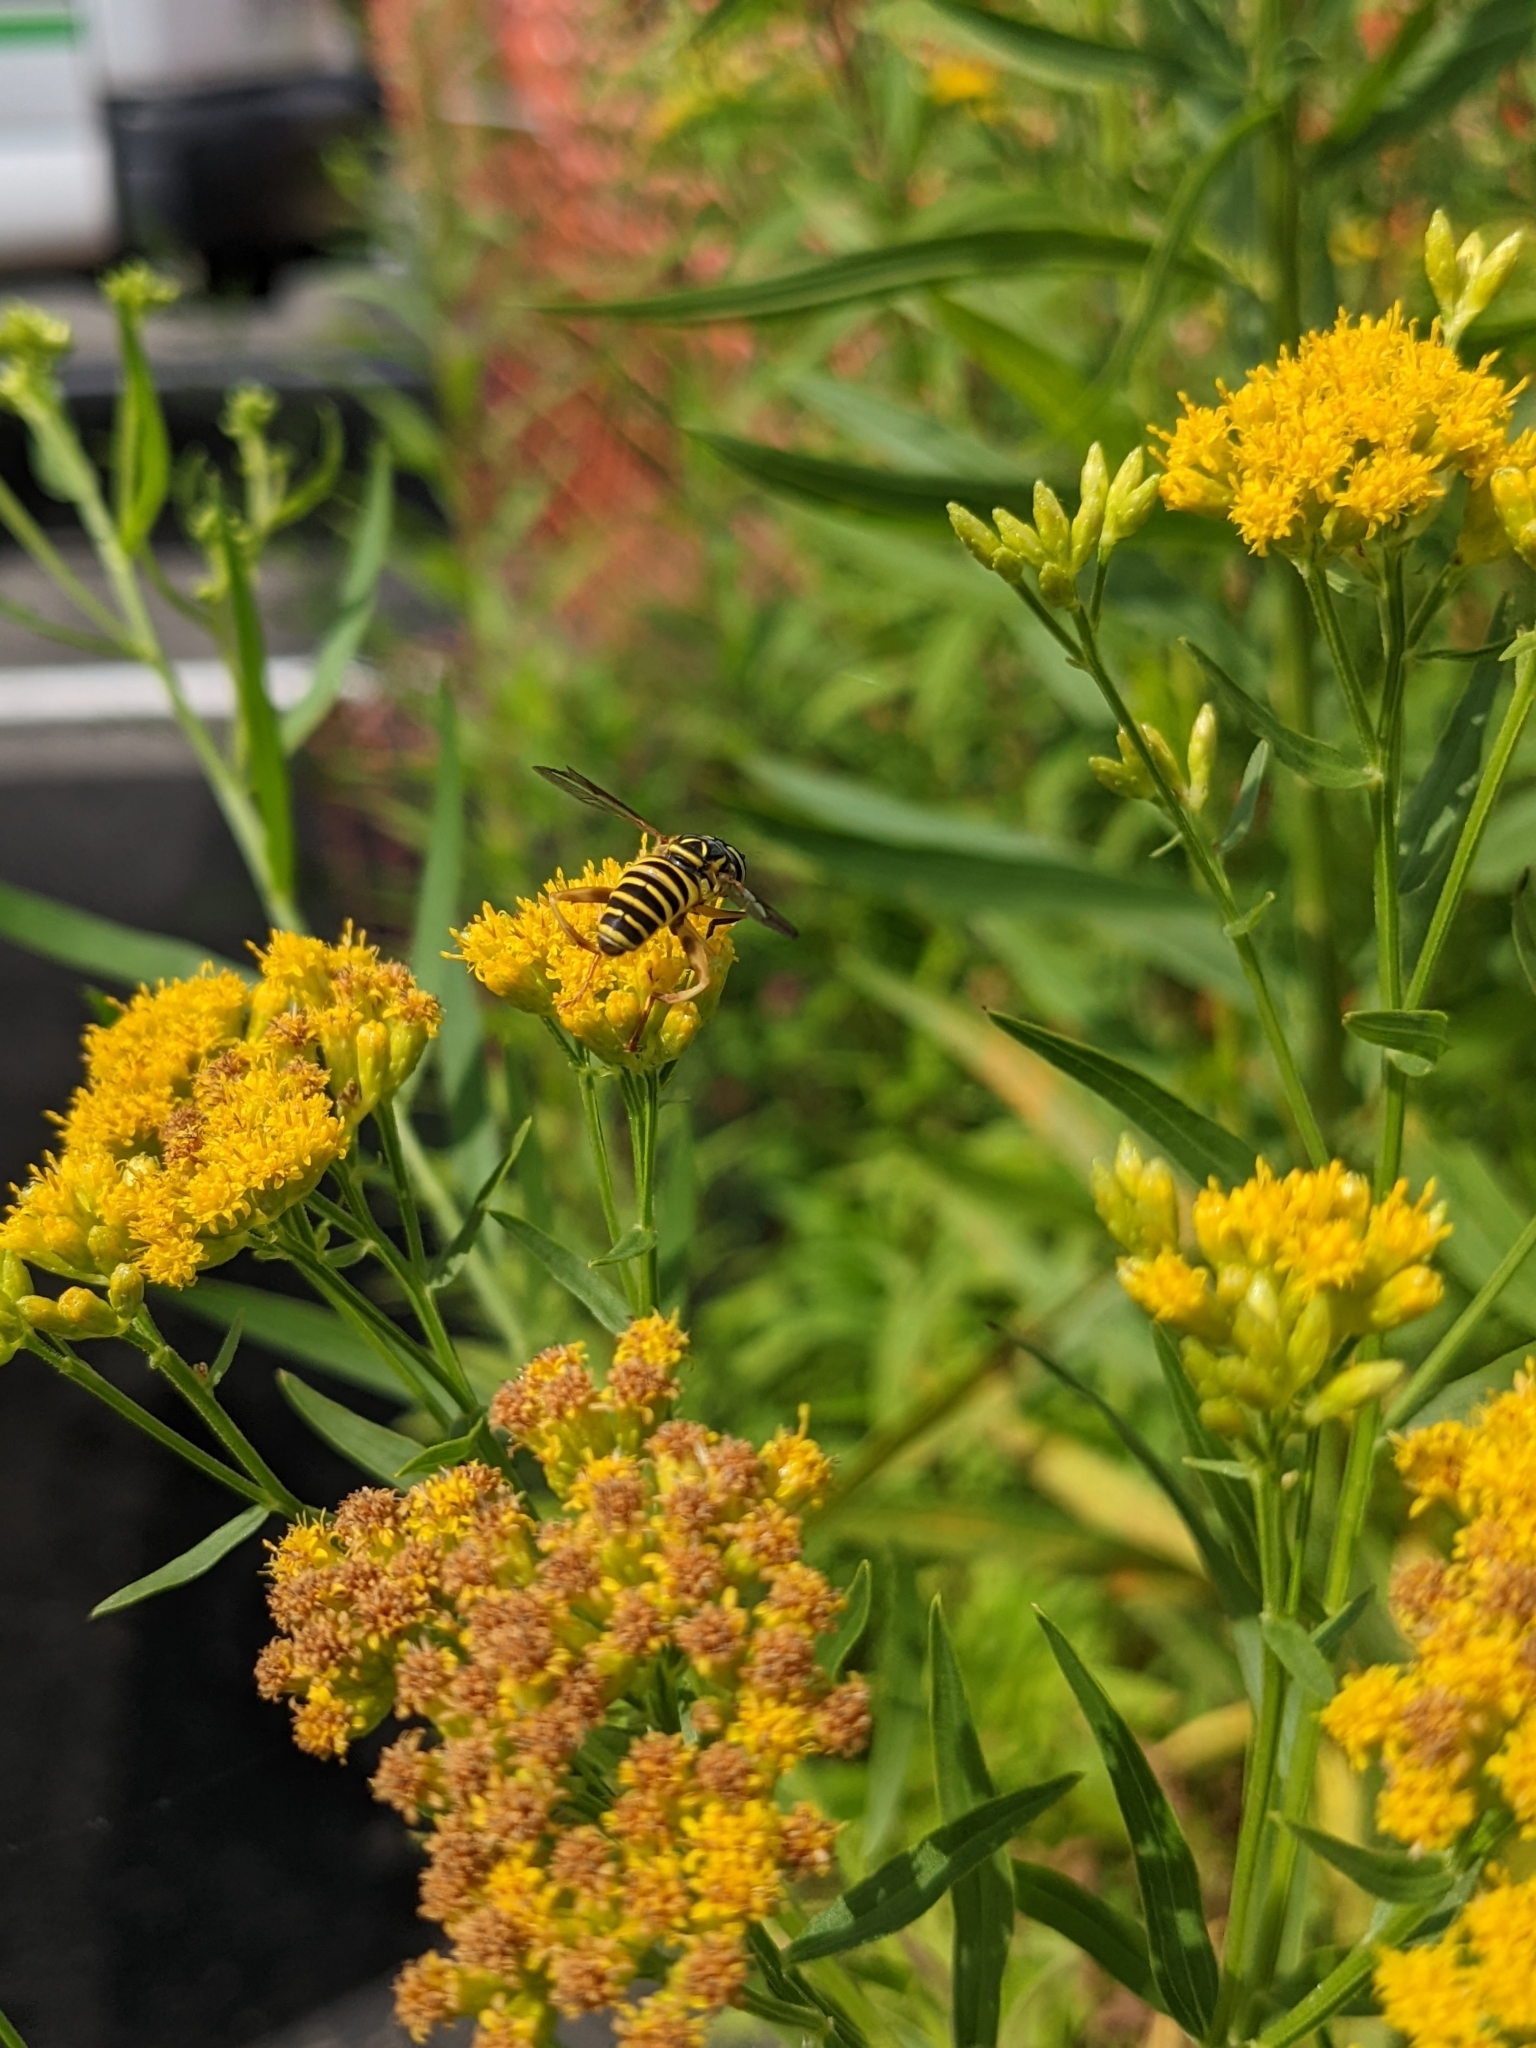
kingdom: Plantae
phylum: Tracheophyta
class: Magnoliopsida
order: Asterales
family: Asteraceae
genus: Euthamia
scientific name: Euthamia graminifolia
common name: Common goldentop
